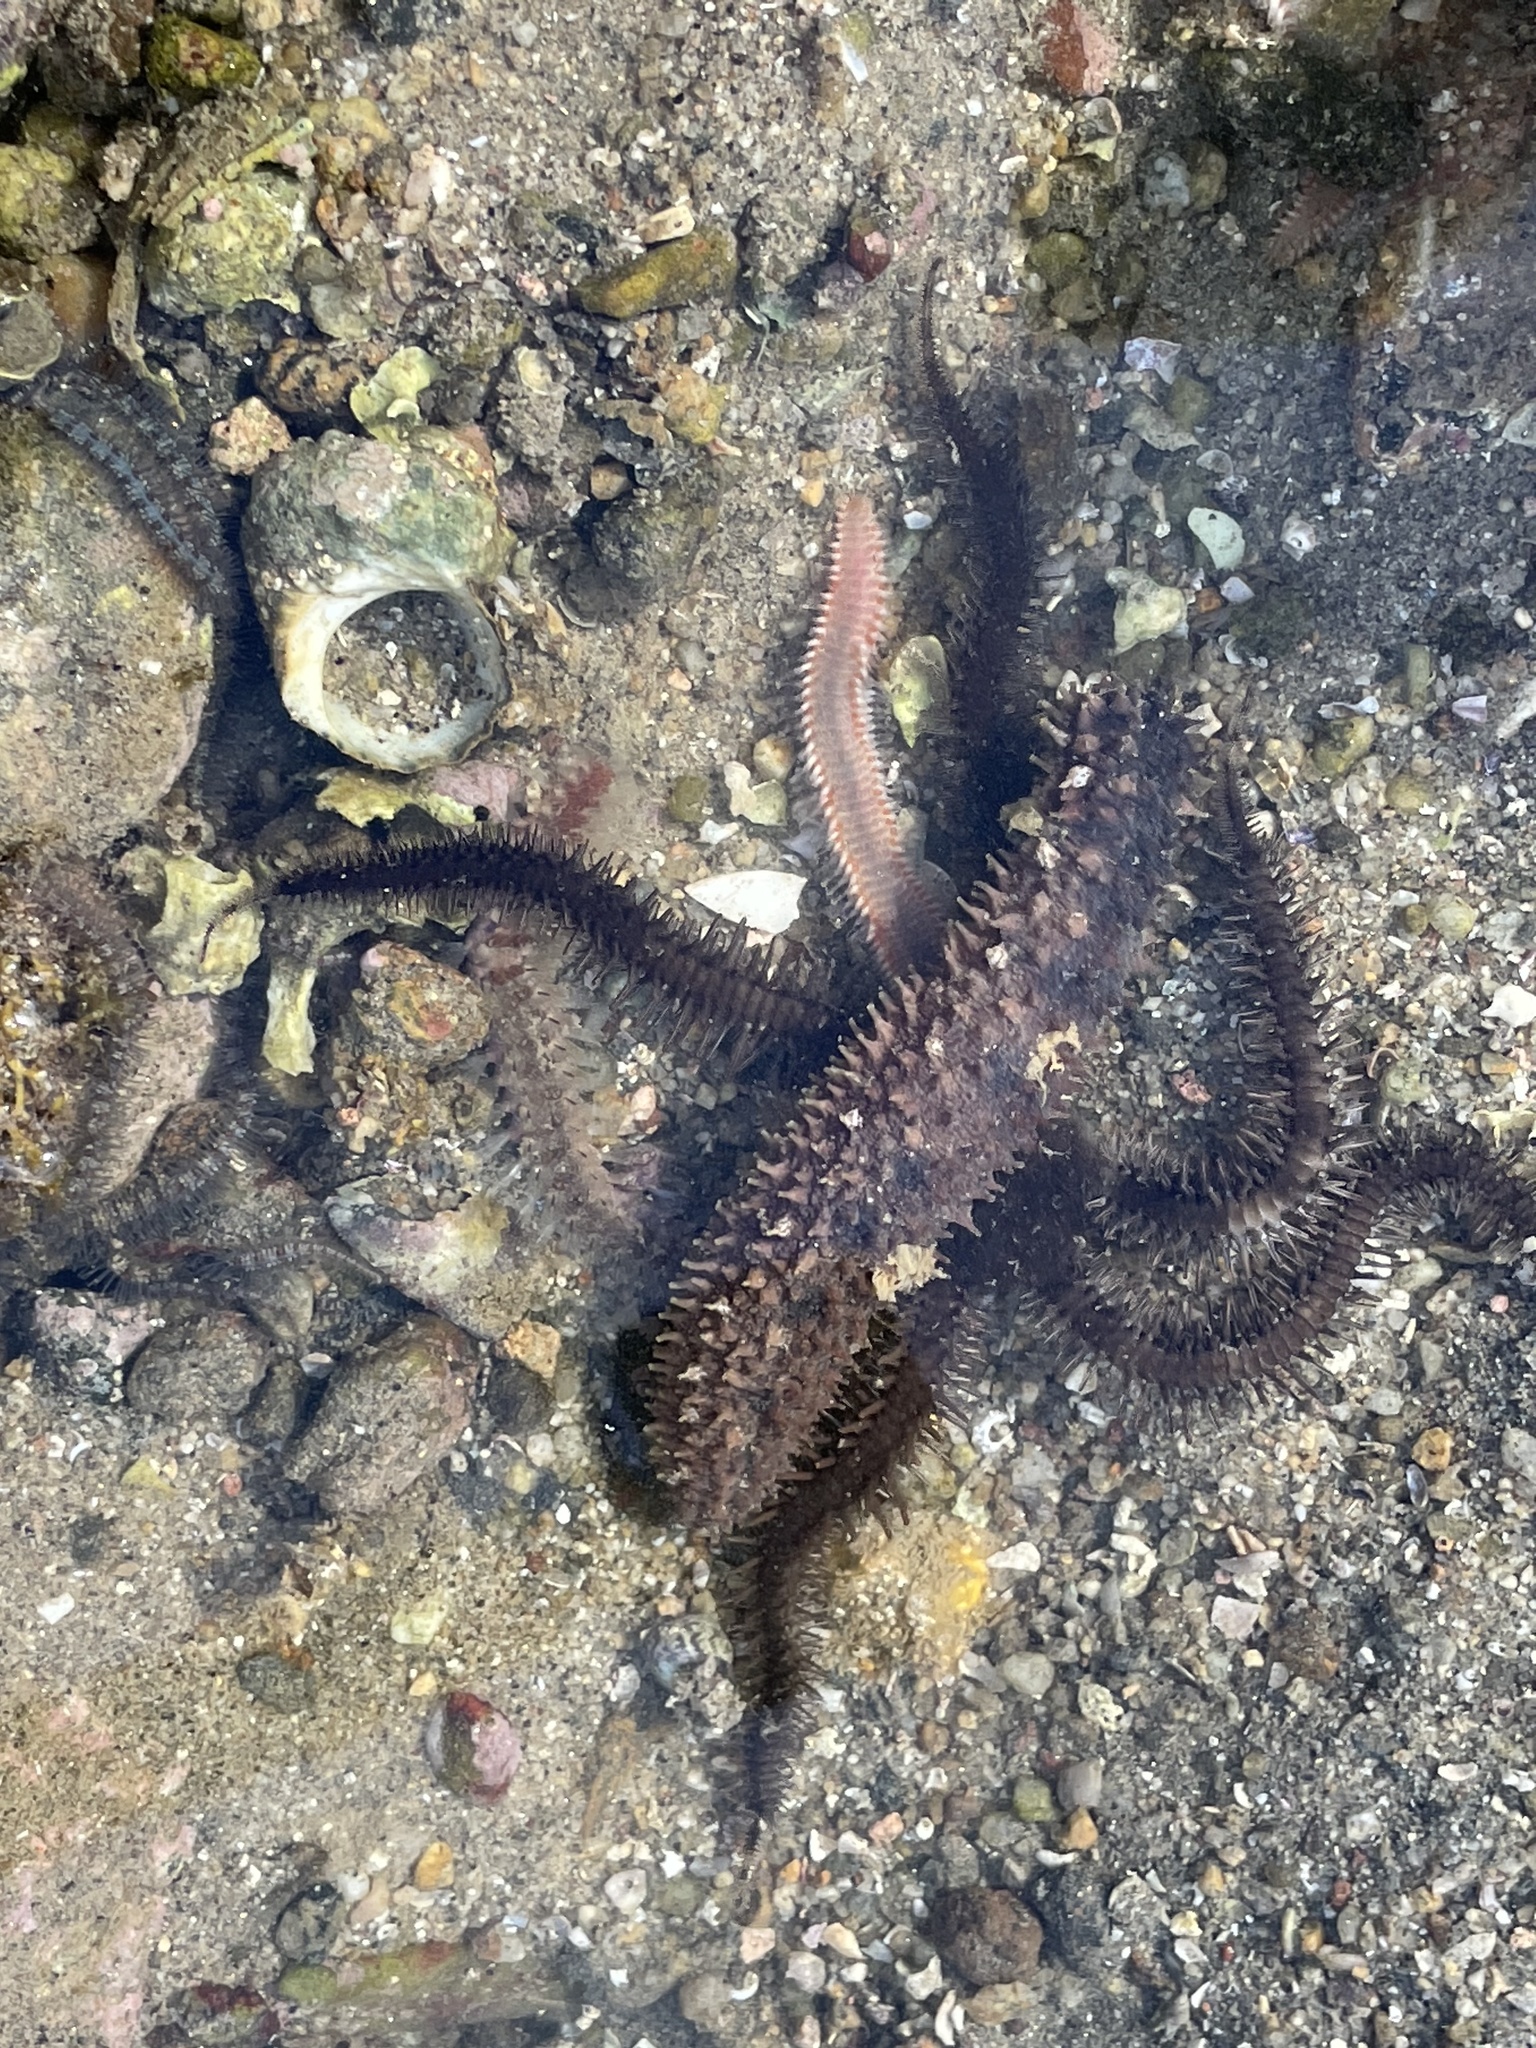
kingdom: Animalia
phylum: Annelida
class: Polychaeta
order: Amphinomida
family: Amphinomidae
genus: Eurythoe
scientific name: Eurythoe complanata
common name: Fireworm
